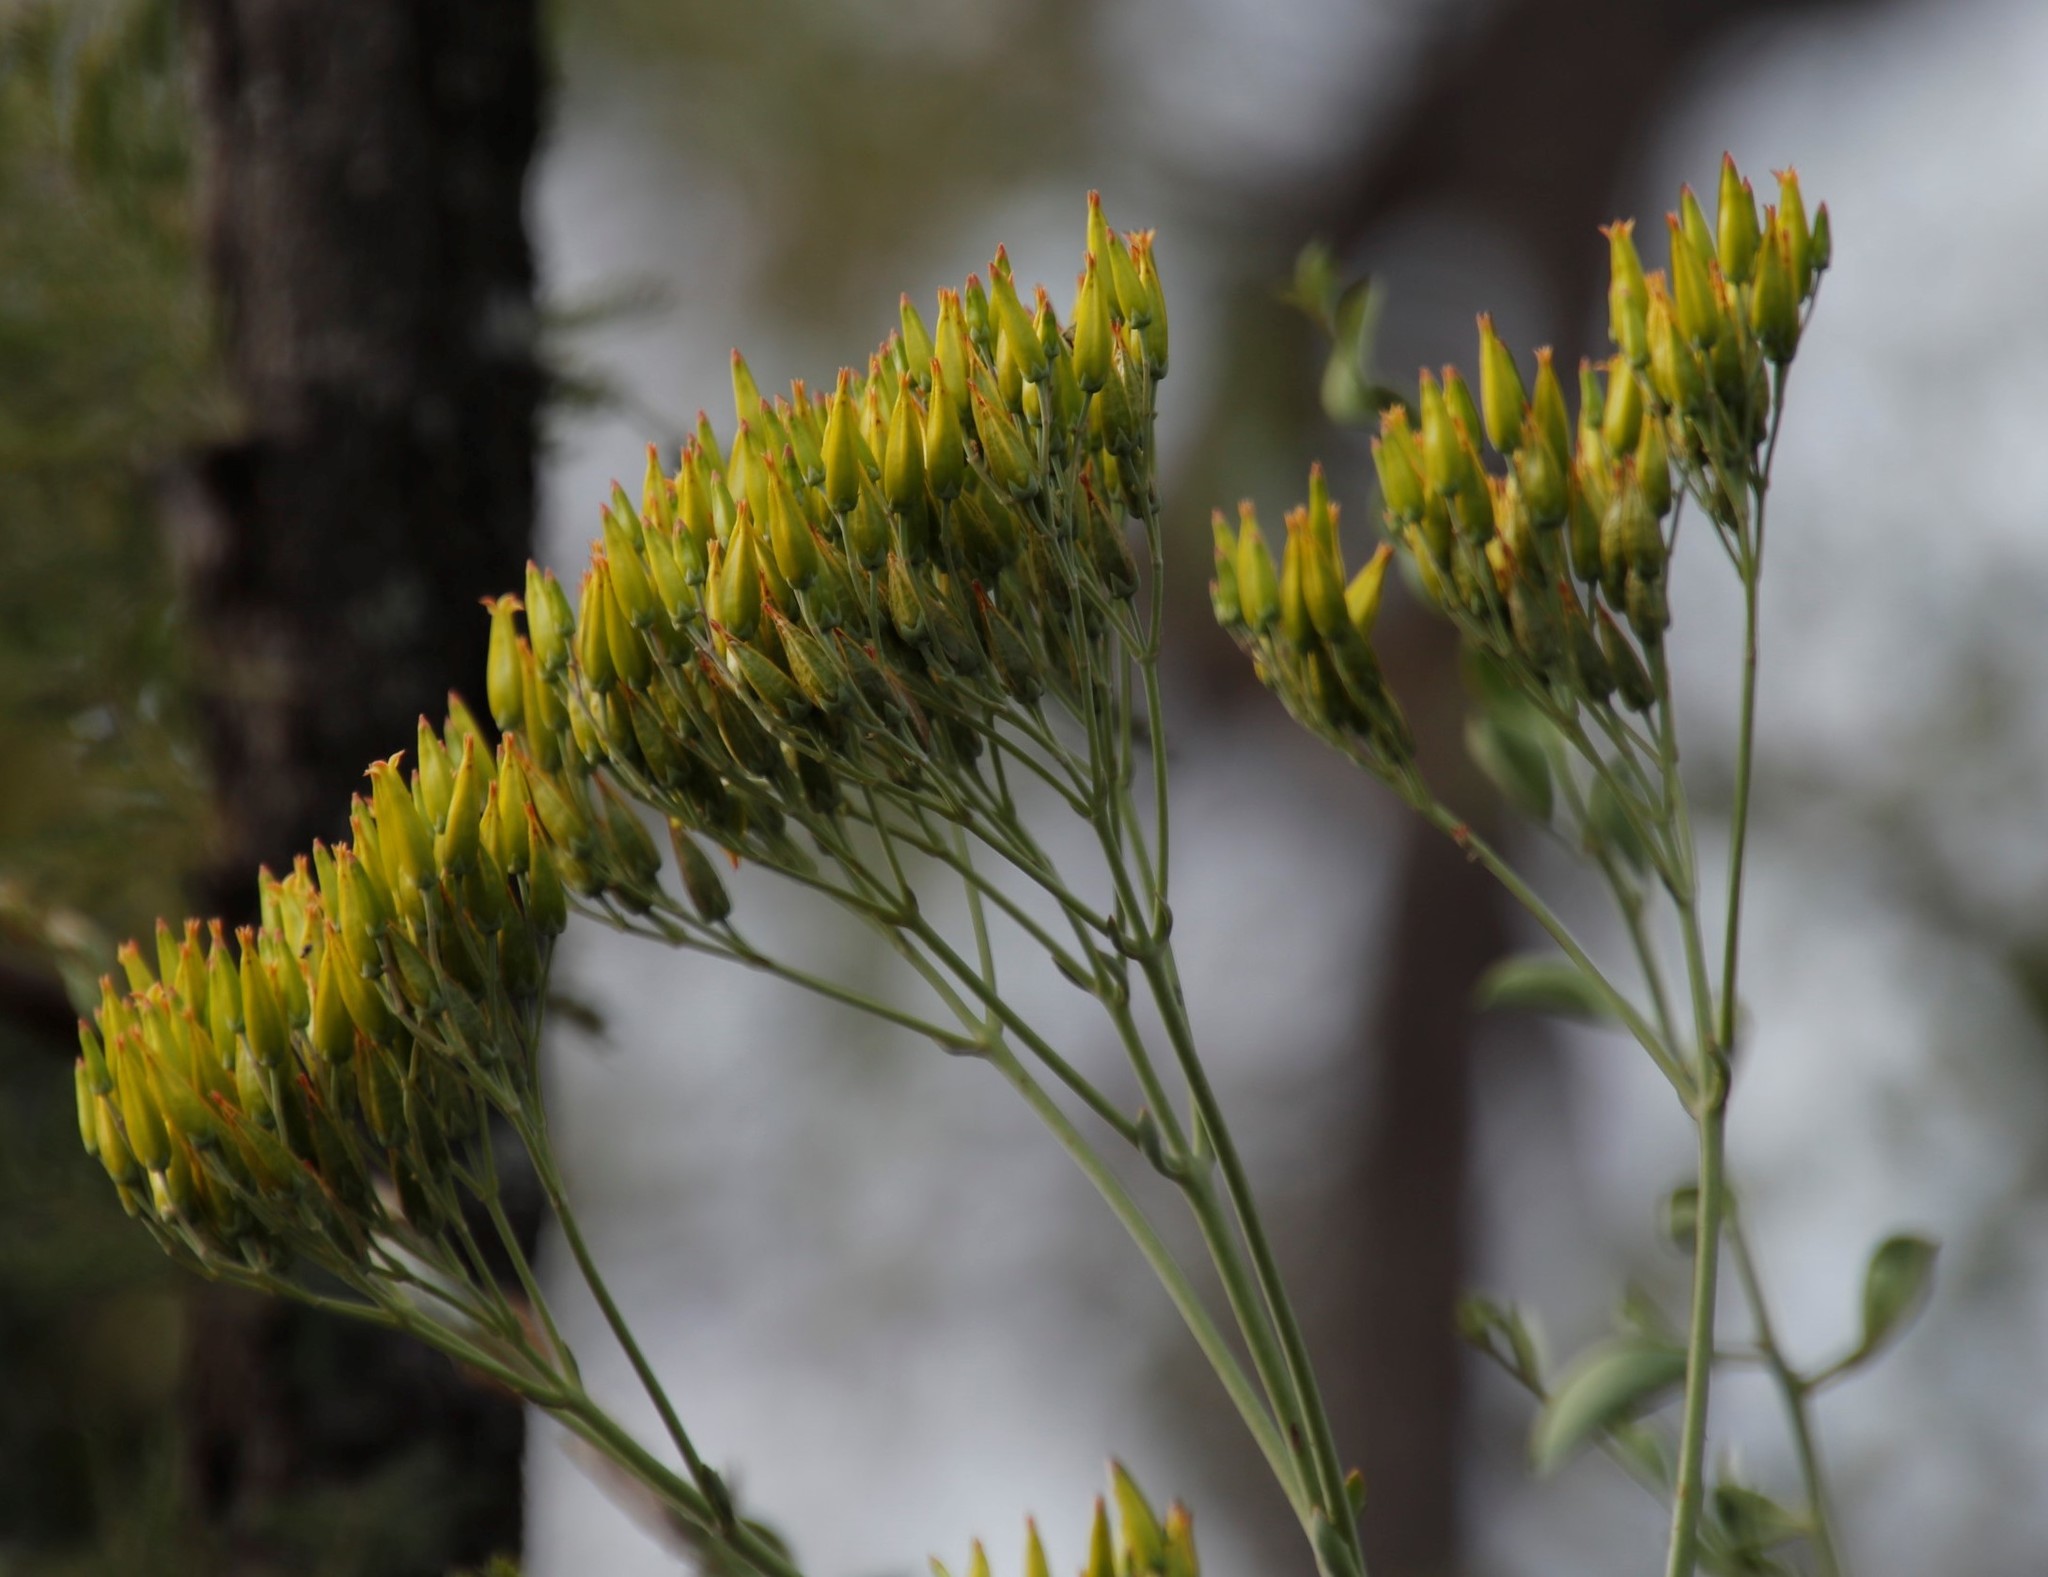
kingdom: Plantae
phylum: Tracheophyta
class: Magnoliopsida
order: Saxifragales
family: Crassulaceae
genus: Kalanchoe
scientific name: Kalanchoe brachyloba
